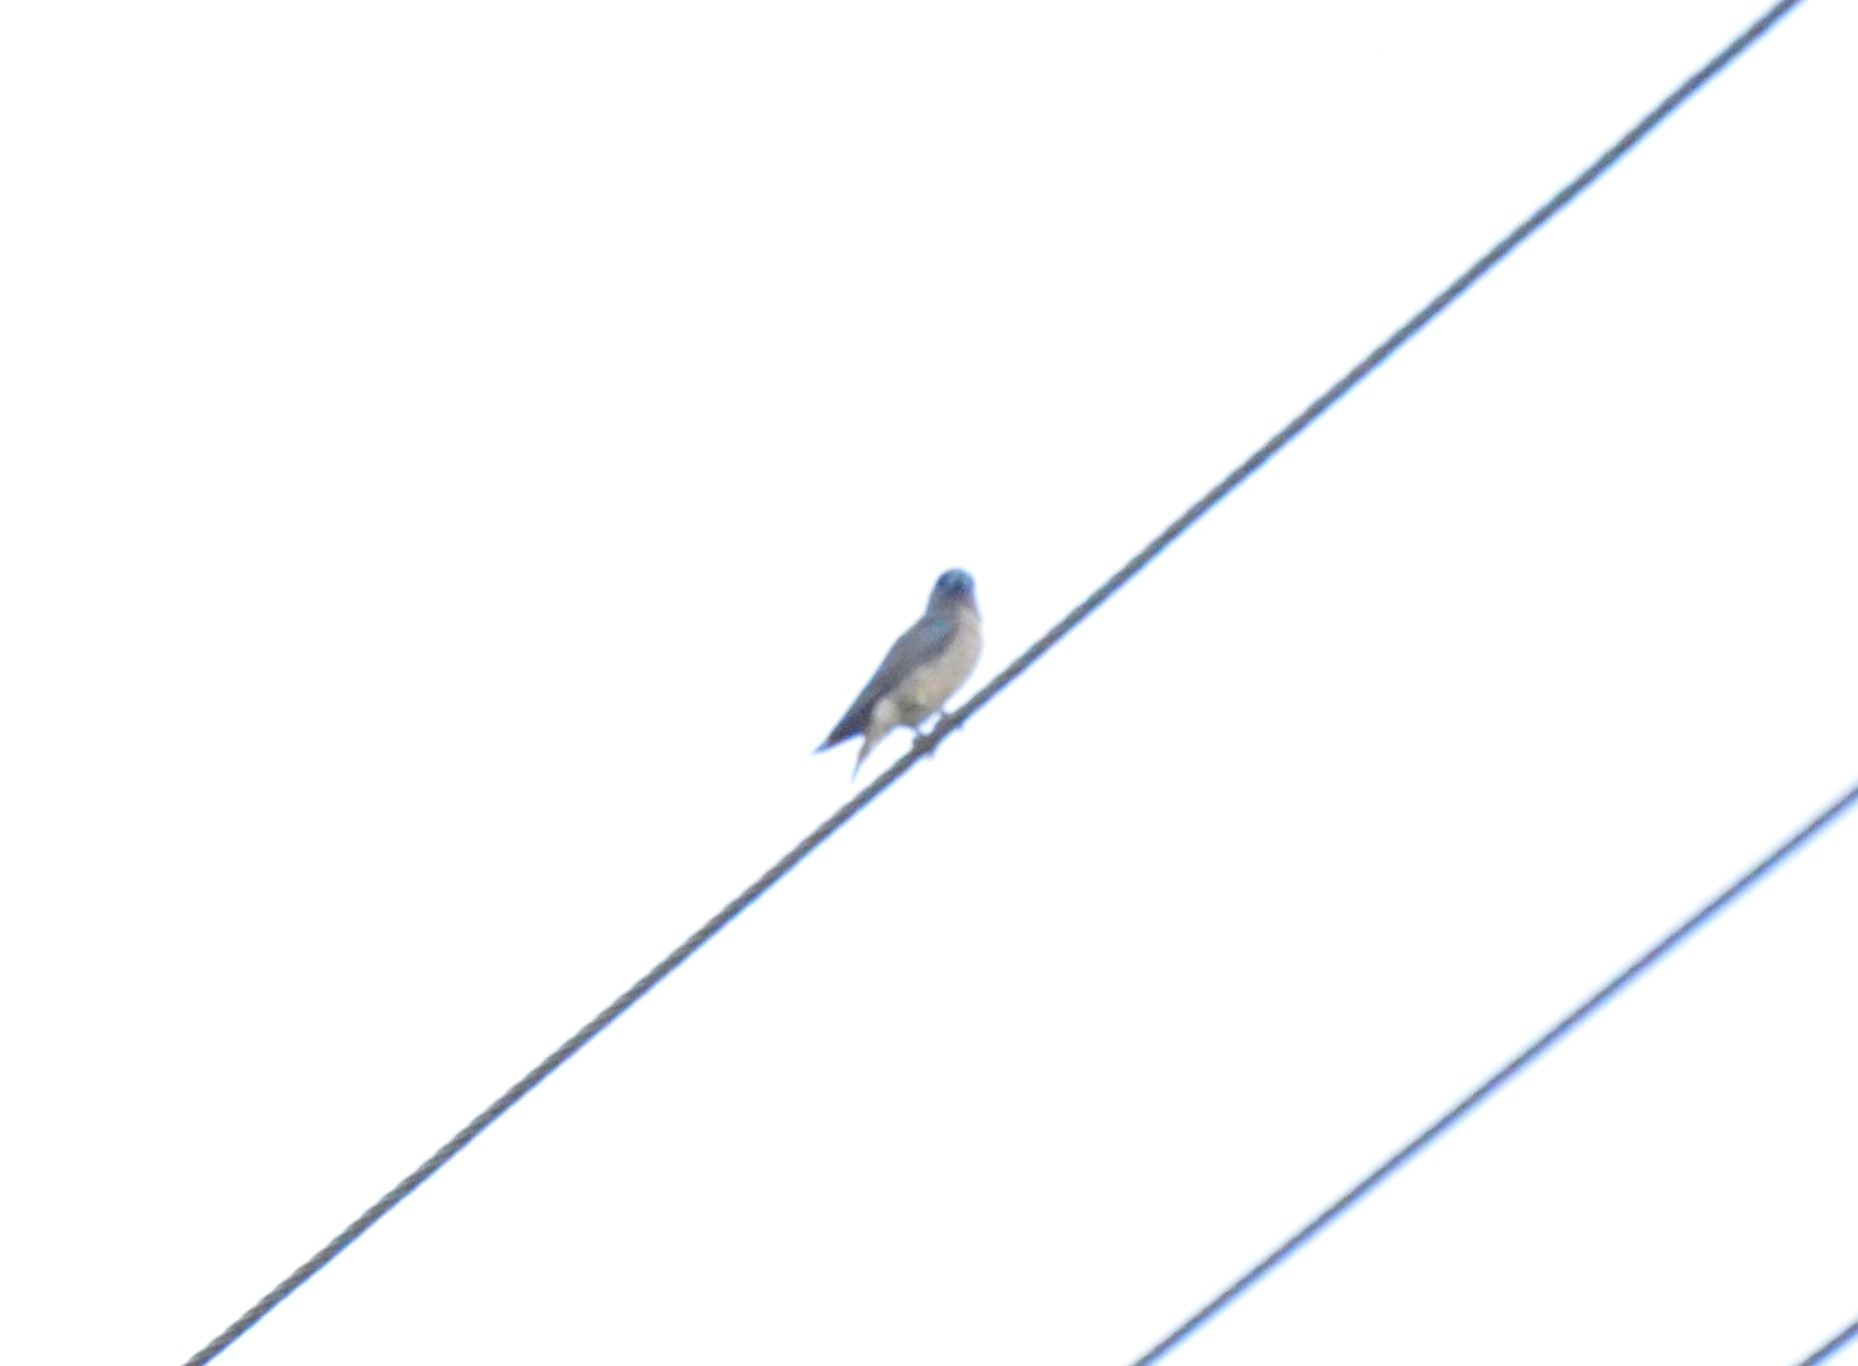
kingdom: Animalia
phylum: Chordata
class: Aves
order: Passeriformes
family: Artamidae
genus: Artamus
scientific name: Artamus fuscus
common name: Ashy woodswallow
